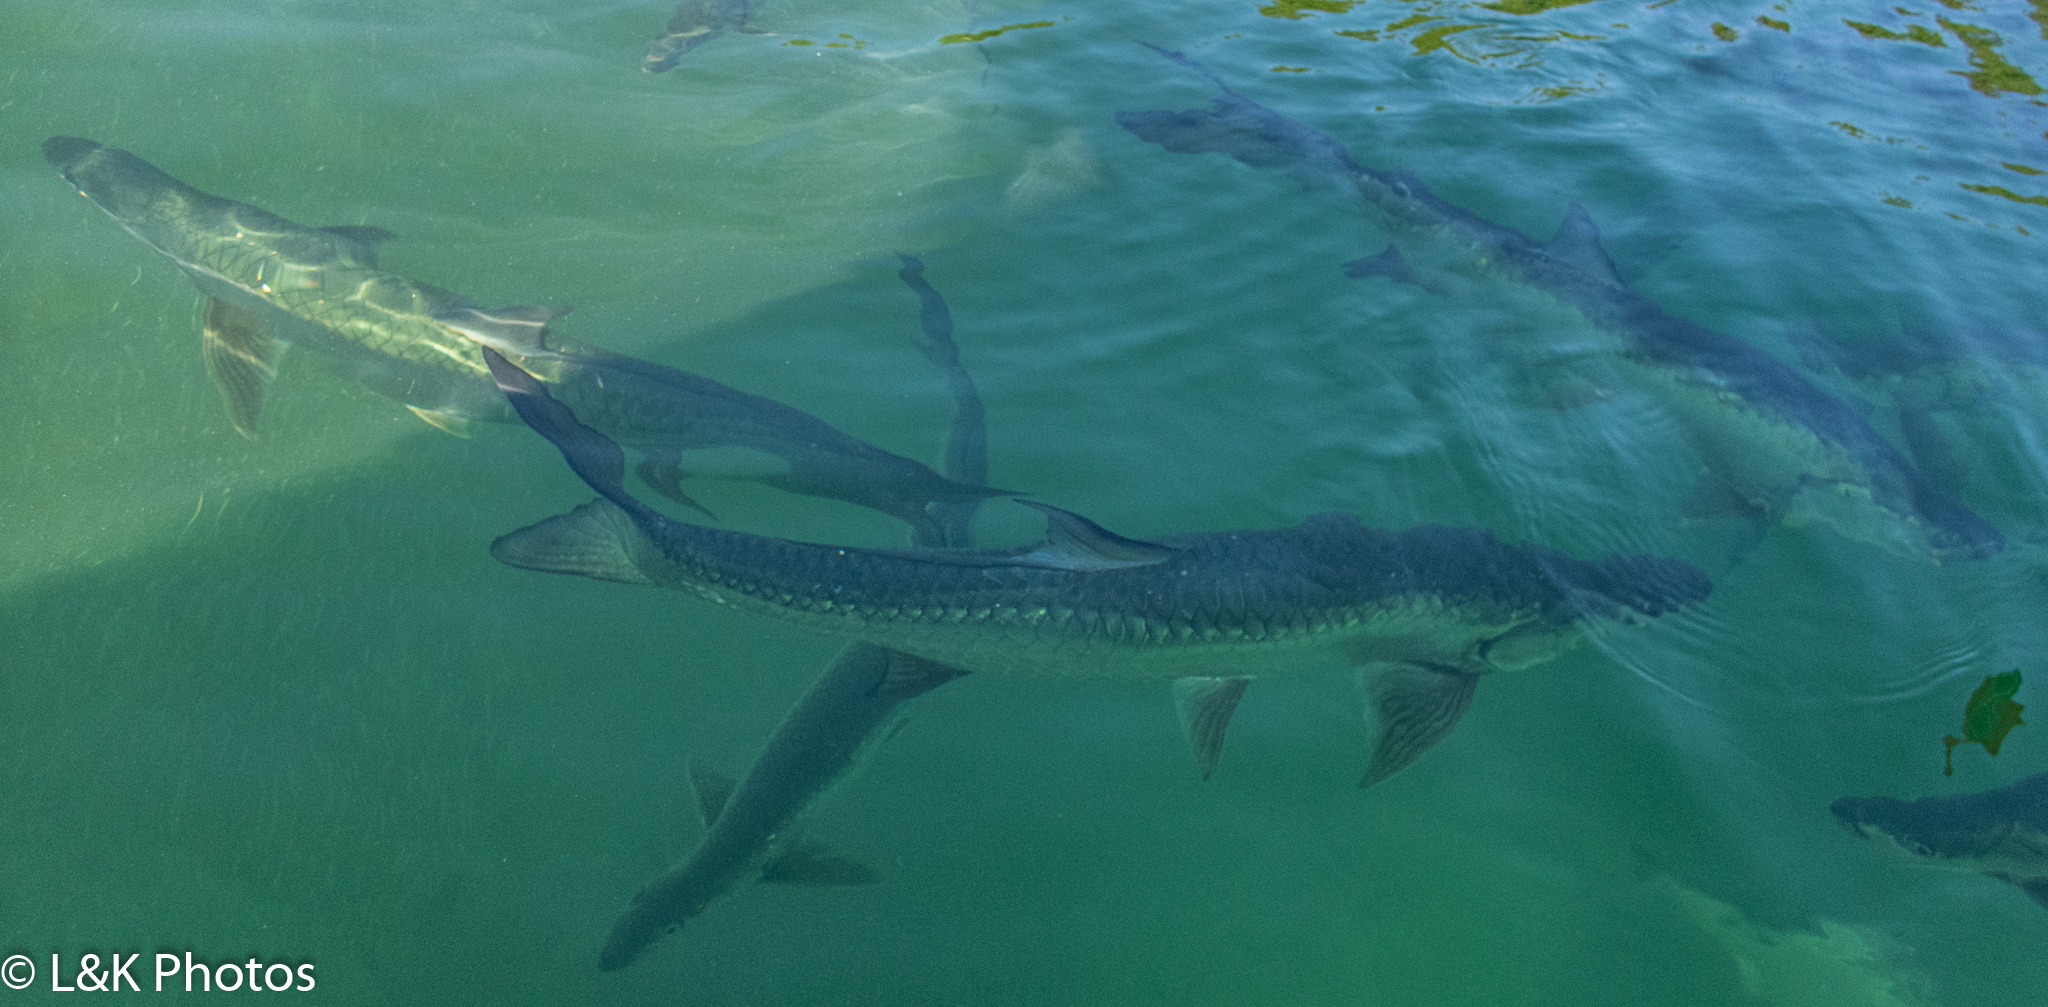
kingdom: Animalia
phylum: Chordata
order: Elopiformes
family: Megalopidae
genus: Megalops
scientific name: Megalops atlanticus
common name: Tarpon
